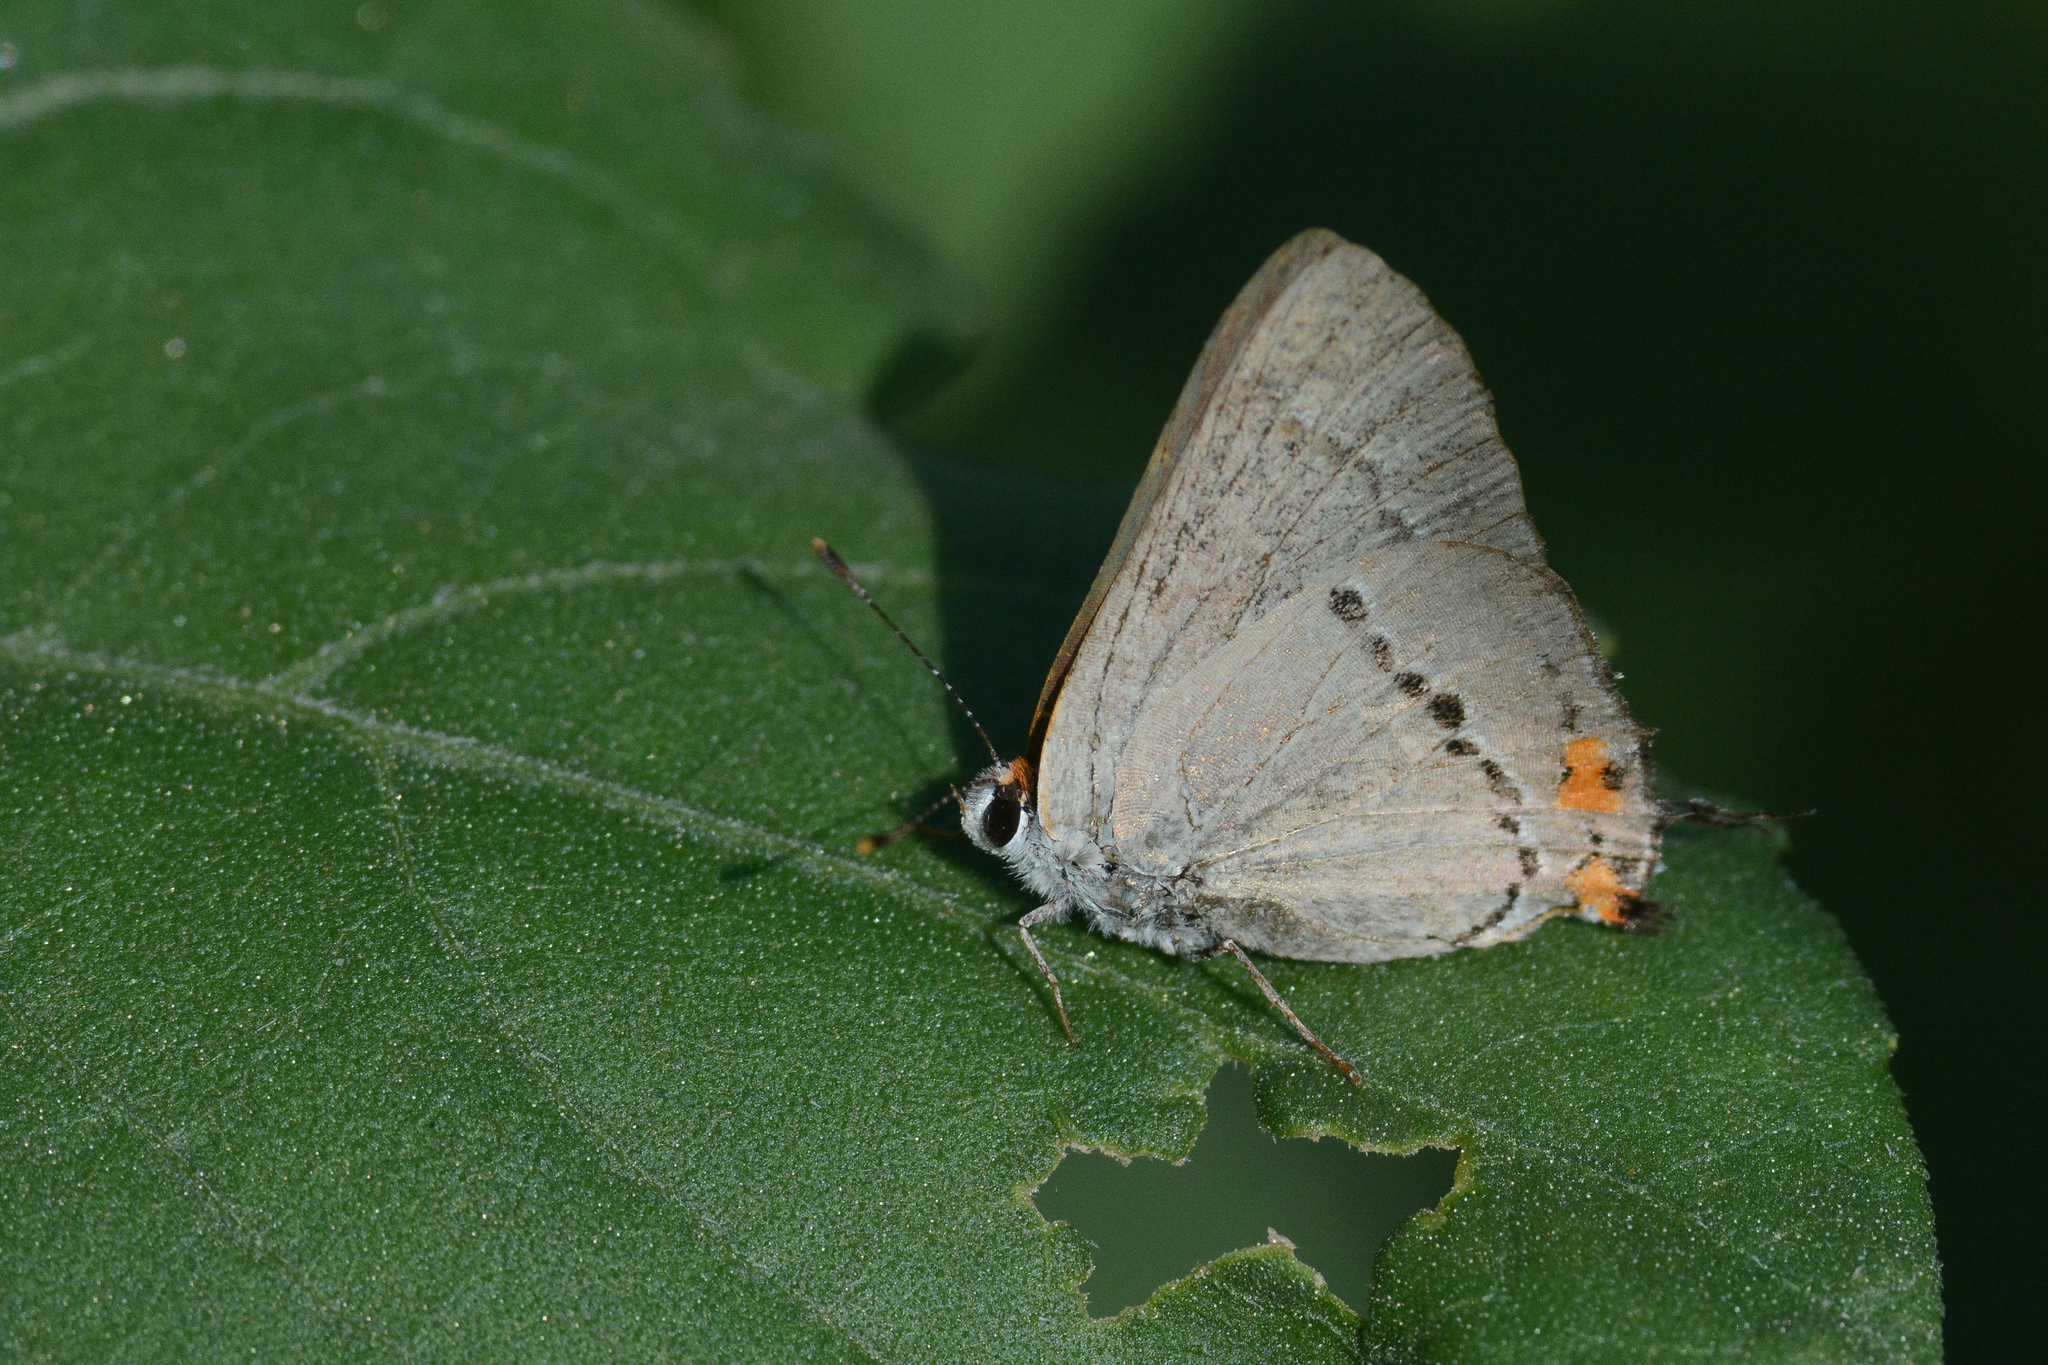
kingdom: Animalia
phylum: Arthropoda
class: Insecta
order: Lepidoptera
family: Lycaenidae
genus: Strymon
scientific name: Strymon melinus
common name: Gray hairstreak
